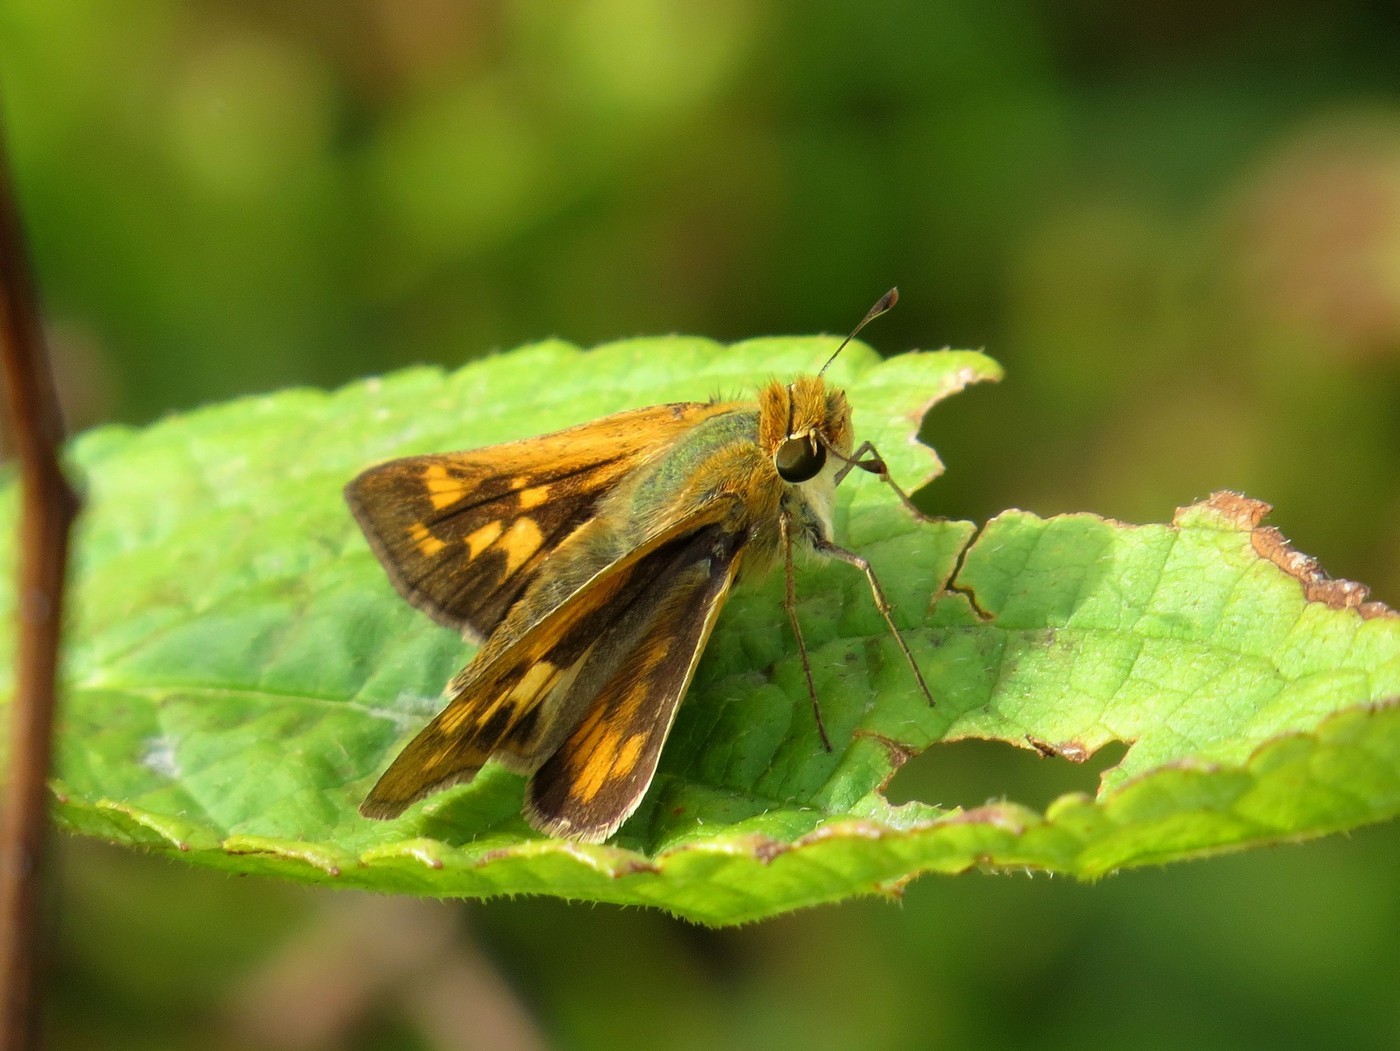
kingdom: Animalia
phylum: Arthropoda
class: Insecta
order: Lepidoptera
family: Hesperiidae
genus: Hylephila
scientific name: Hylephila phyleus
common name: Fiery skipper
